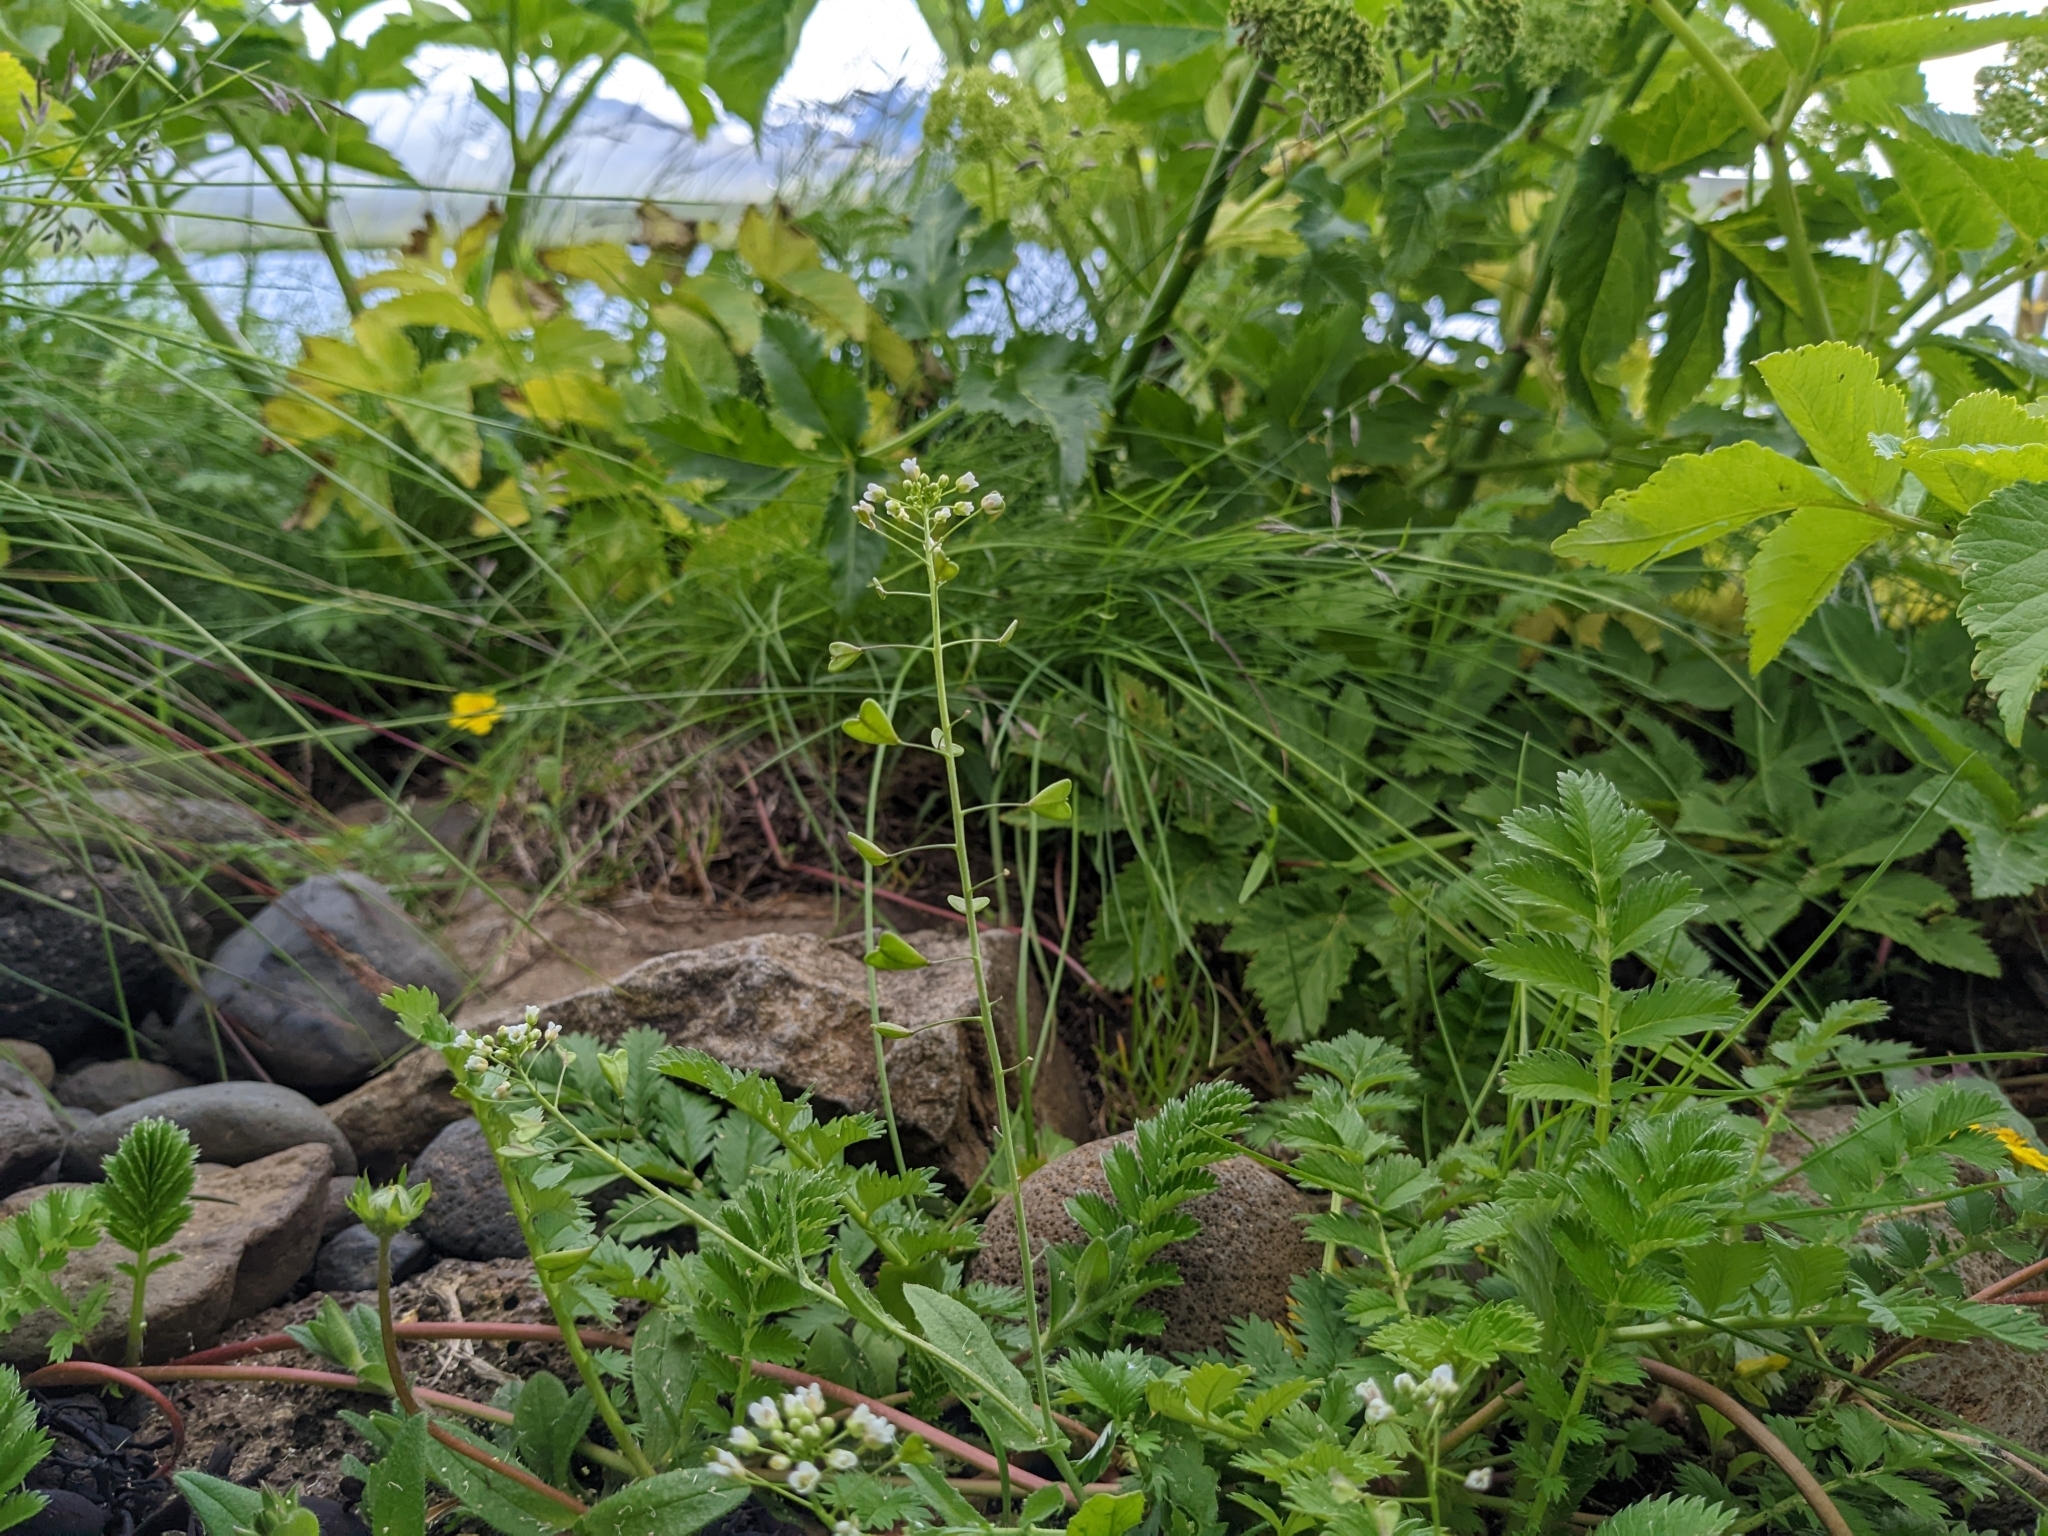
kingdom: Plantae
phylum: Tracheophyta
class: Magnoliopsida
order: Brassicales
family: Brassicaceae
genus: Capsella
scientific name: Capsella bursa-pastoris
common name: Shepherd's purse
